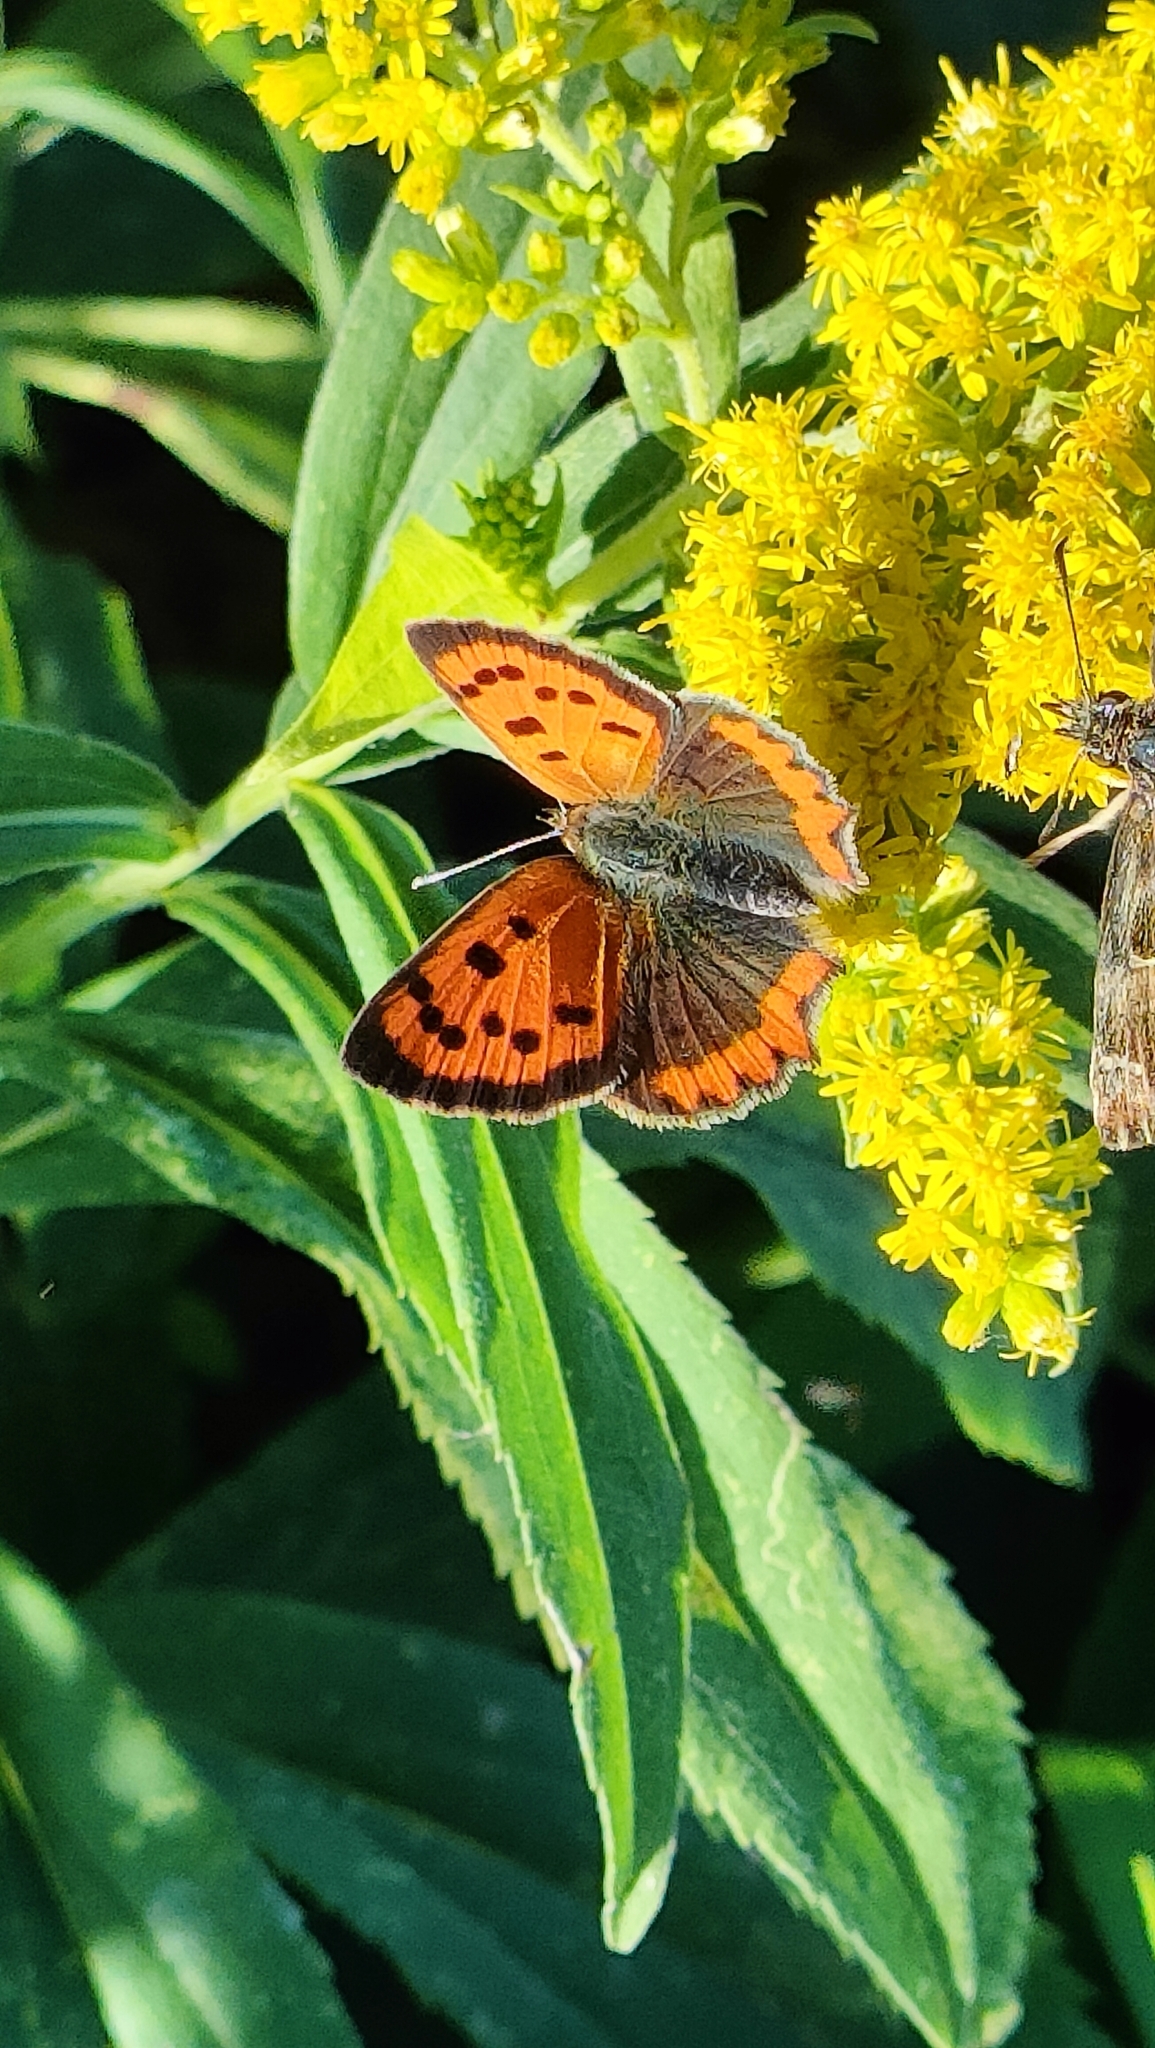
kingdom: Animalia
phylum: Arthropoda
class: Insecta
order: Lepidoptera
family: Lycaenidae
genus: Lycaena
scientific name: Lycaena phlaeas
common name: Small copper
